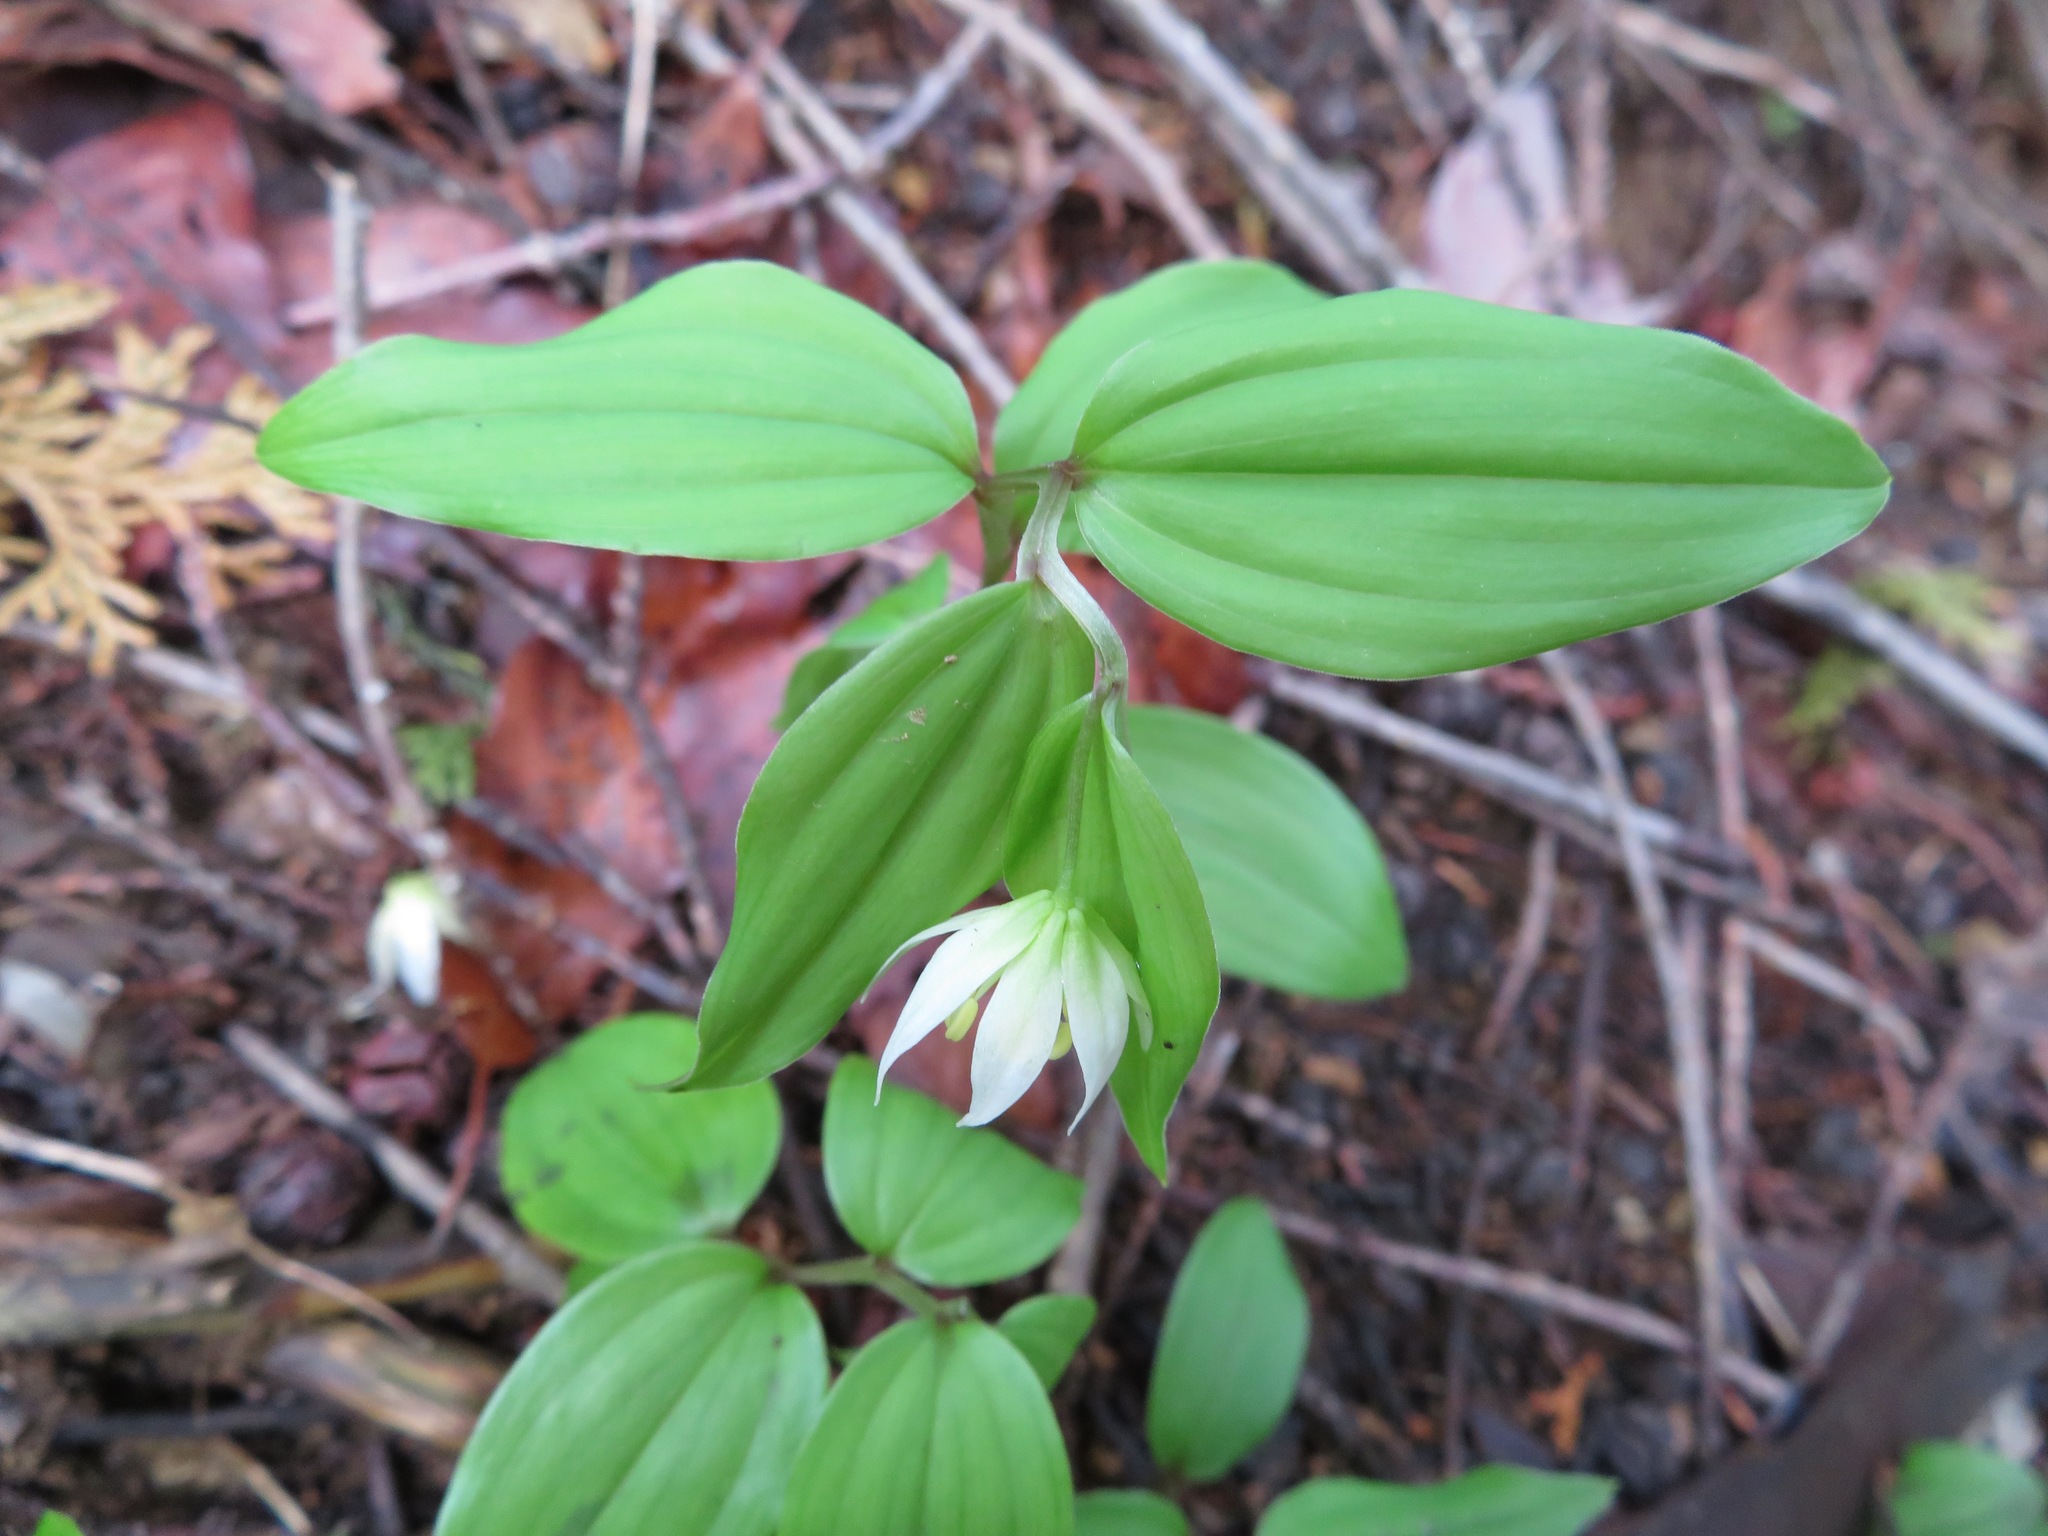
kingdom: Plantae
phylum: Tracheophyta
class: Liliopsida
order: Liliales
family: Colchicaceae
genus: Disporum
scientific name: Disporum smilacinum
